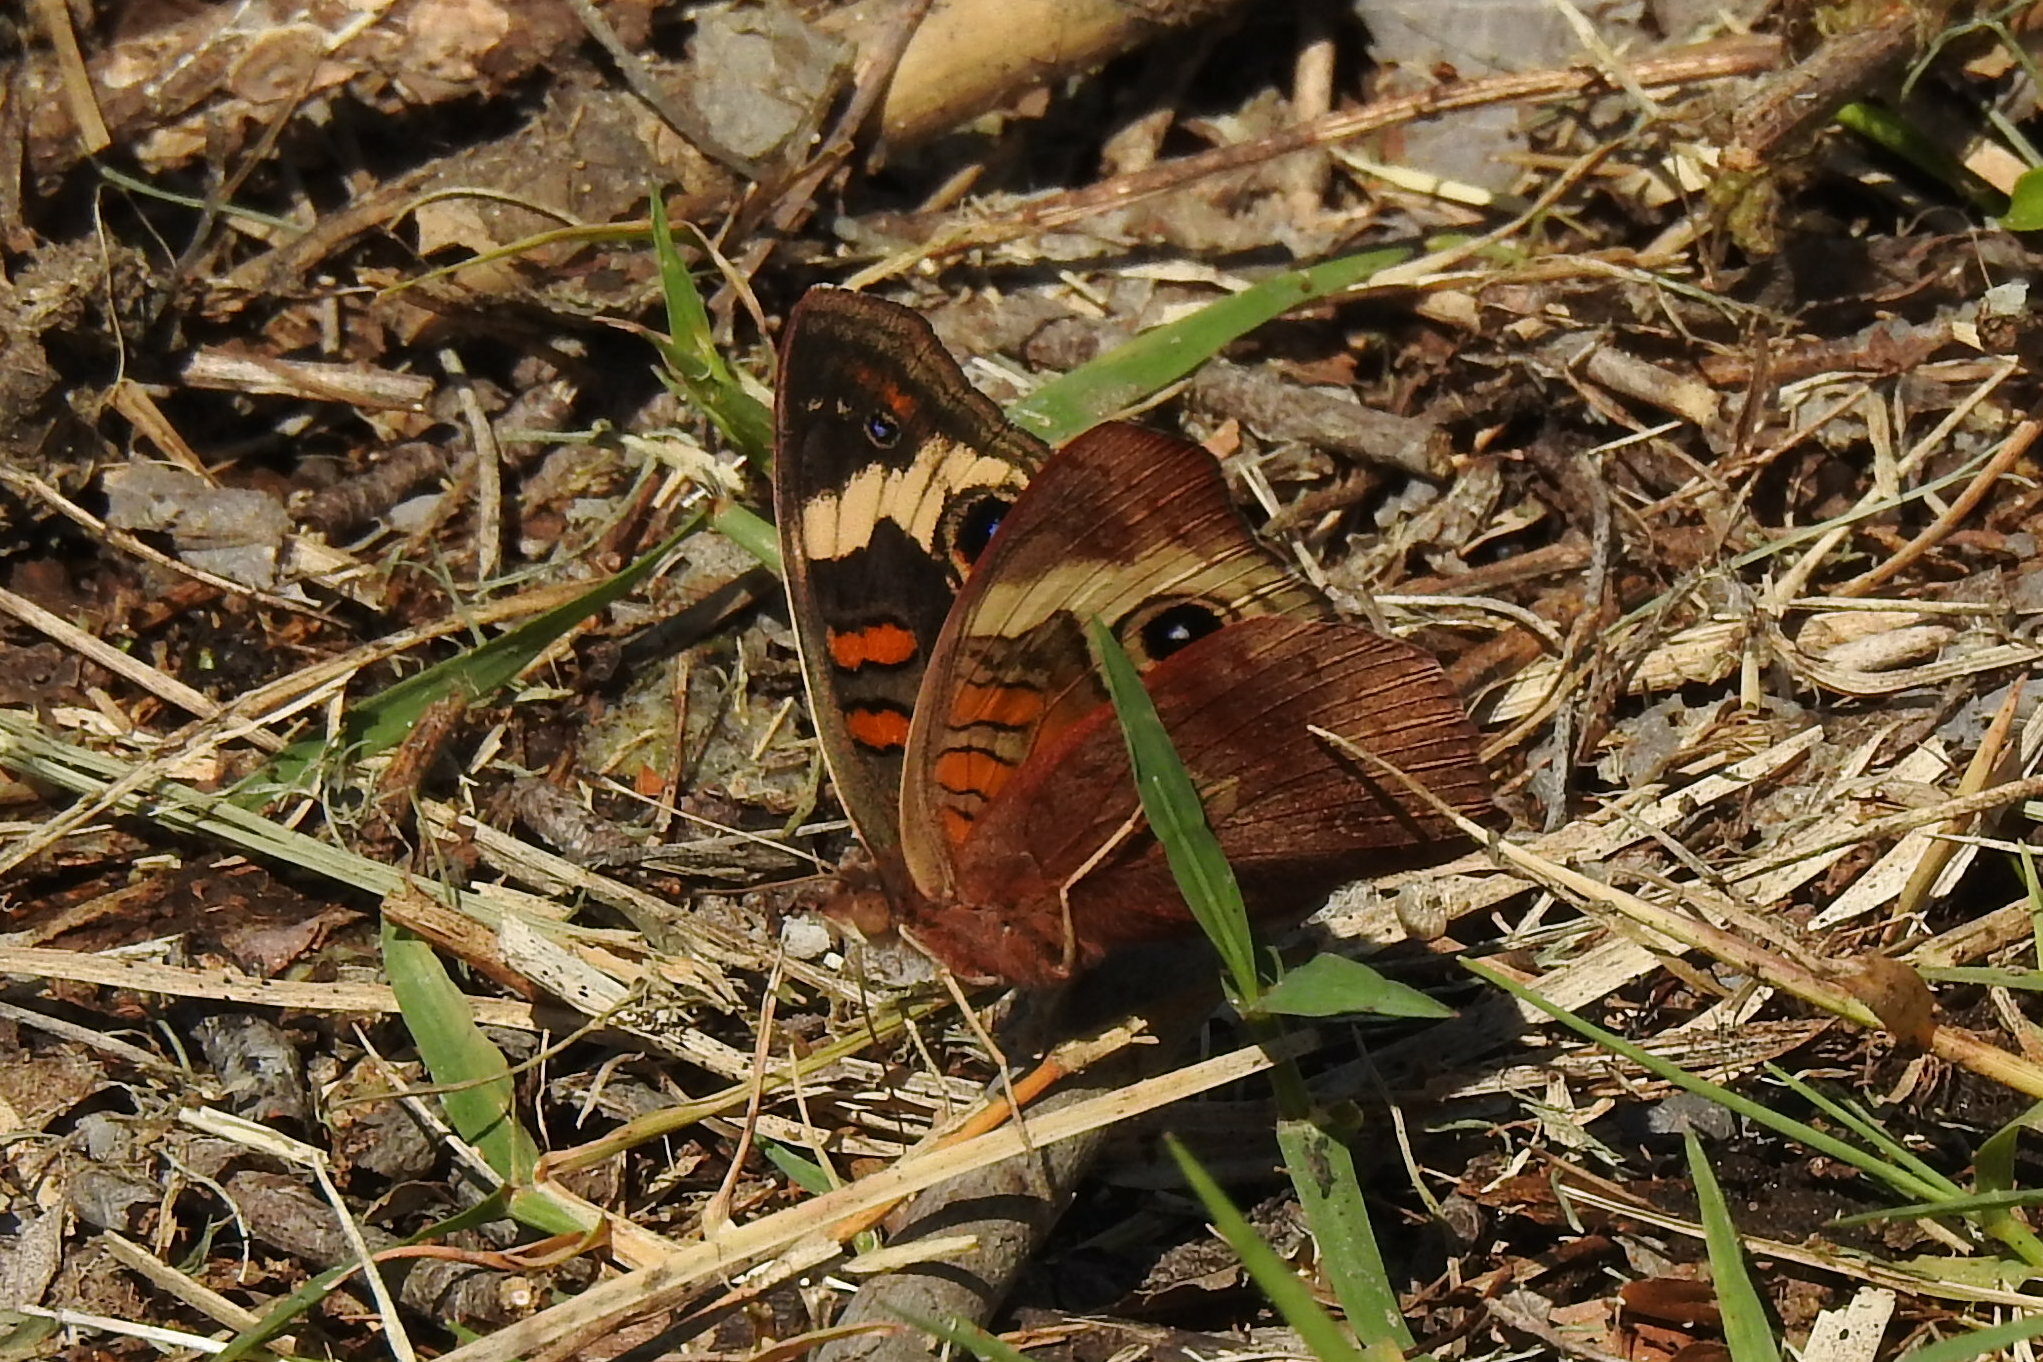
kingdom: Animalia
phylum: Arthropoda
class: Insecta
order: Lepidoptera
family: Nymphalidae
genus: Junonia
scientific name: Junonia coenia
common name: Common buckeye
